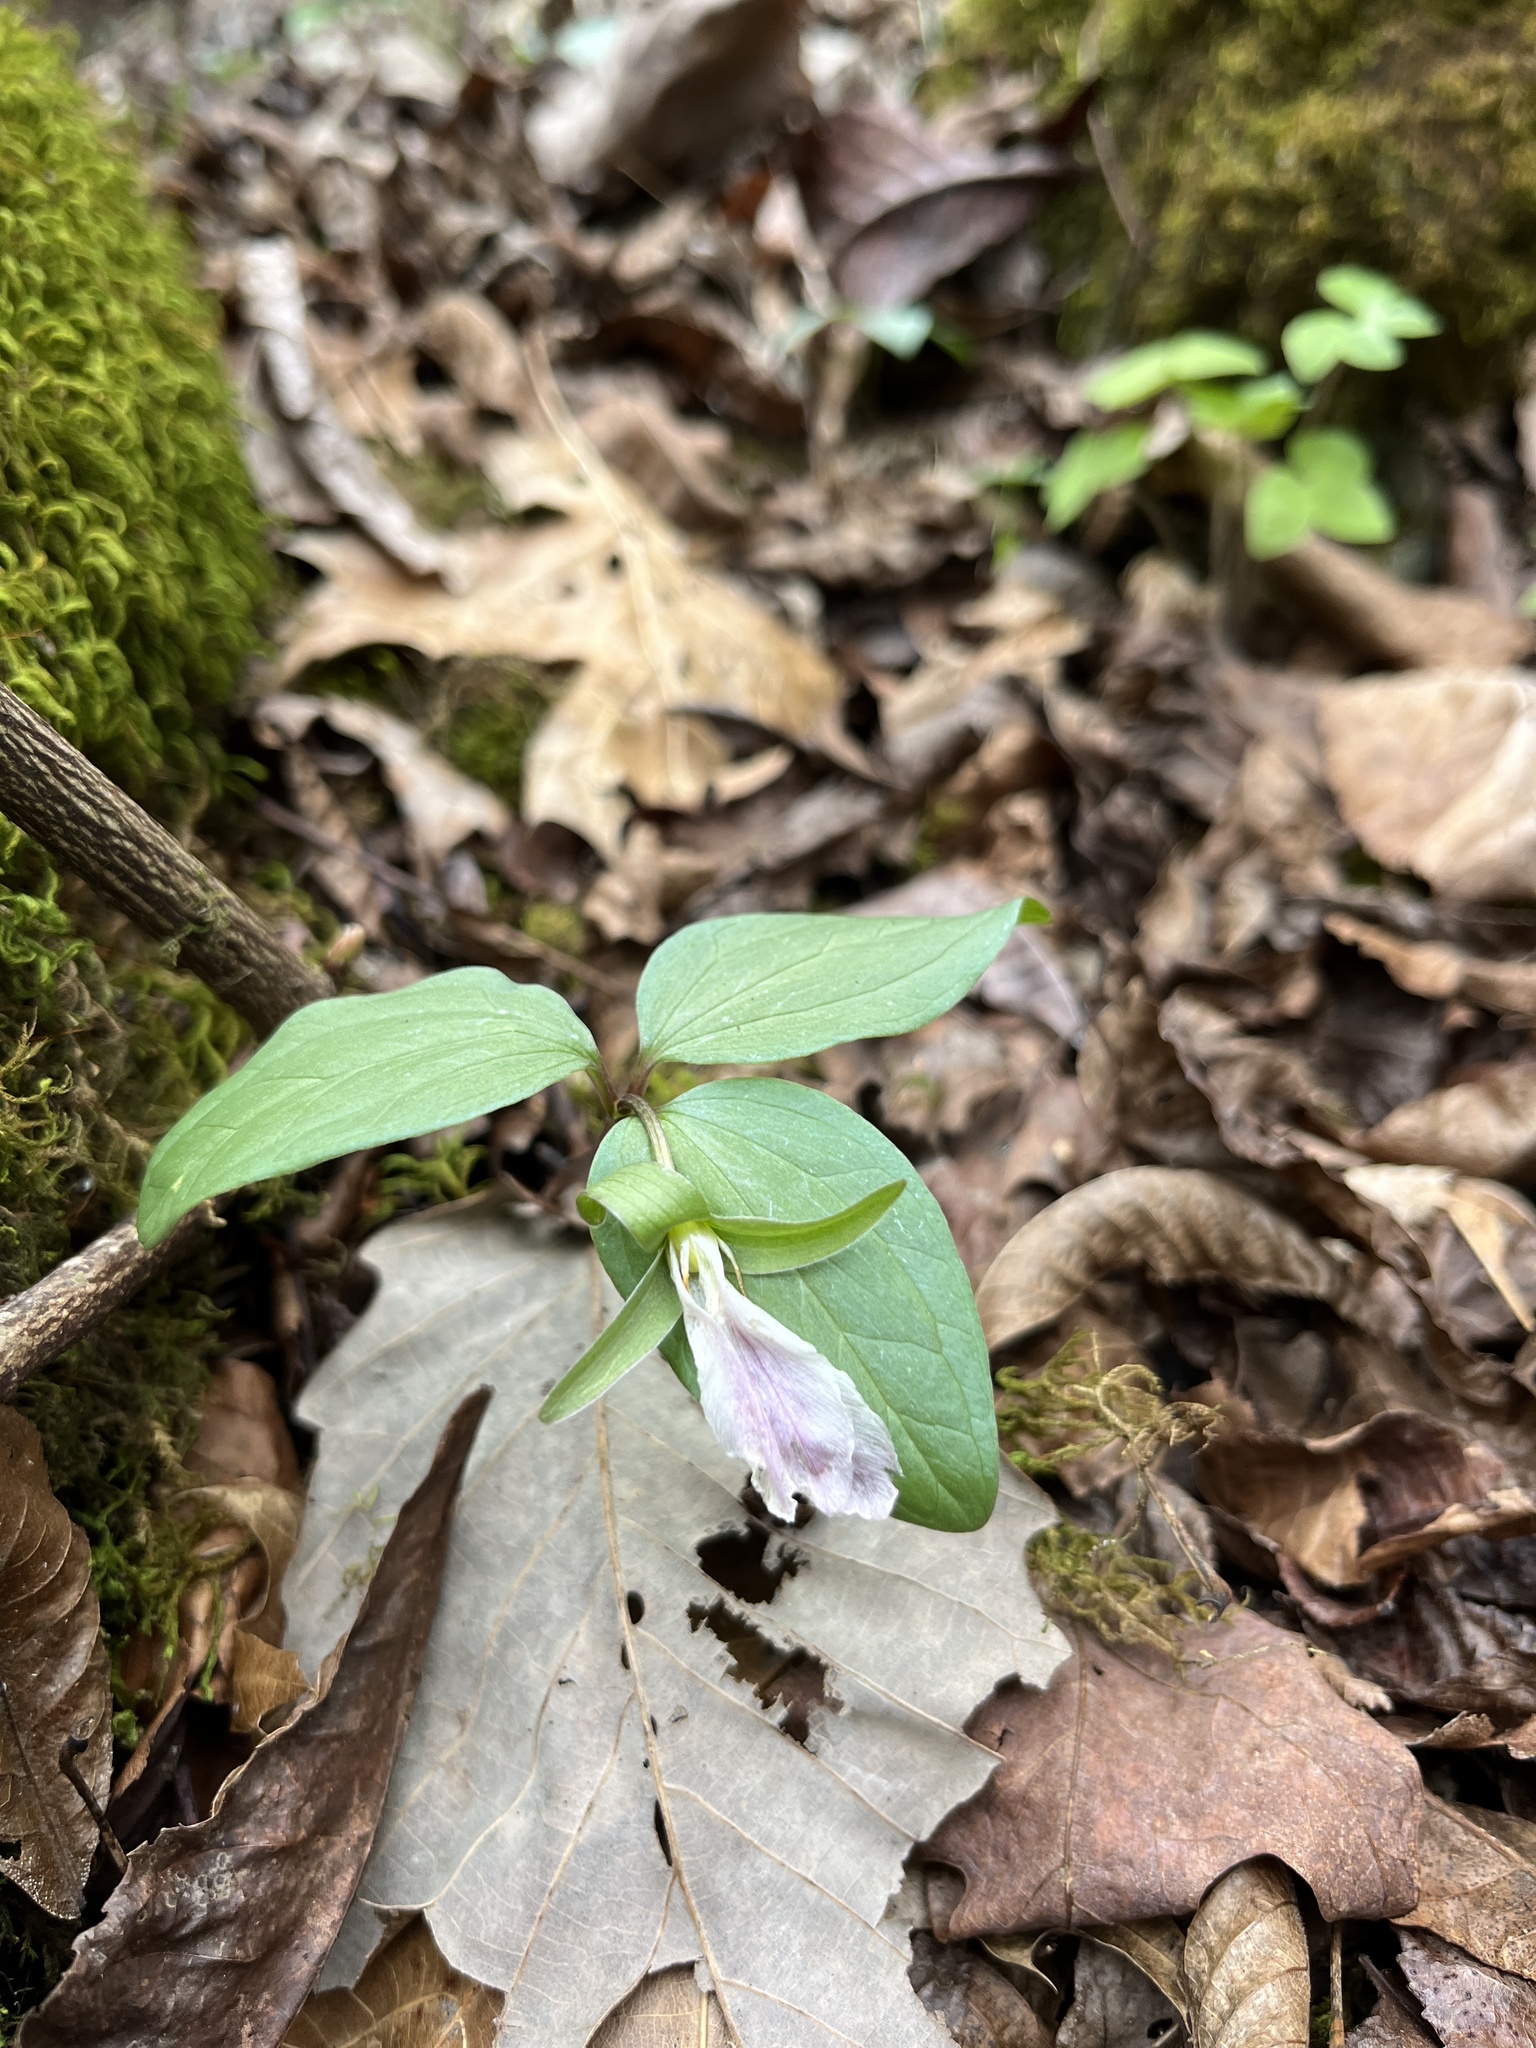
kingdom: Plantae
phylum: Tracheophyta
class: Liliopsida
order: Liliales
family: Melanthiaceae
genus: Trillium
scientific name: Trillium nivale
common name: Dwarf white trillium
